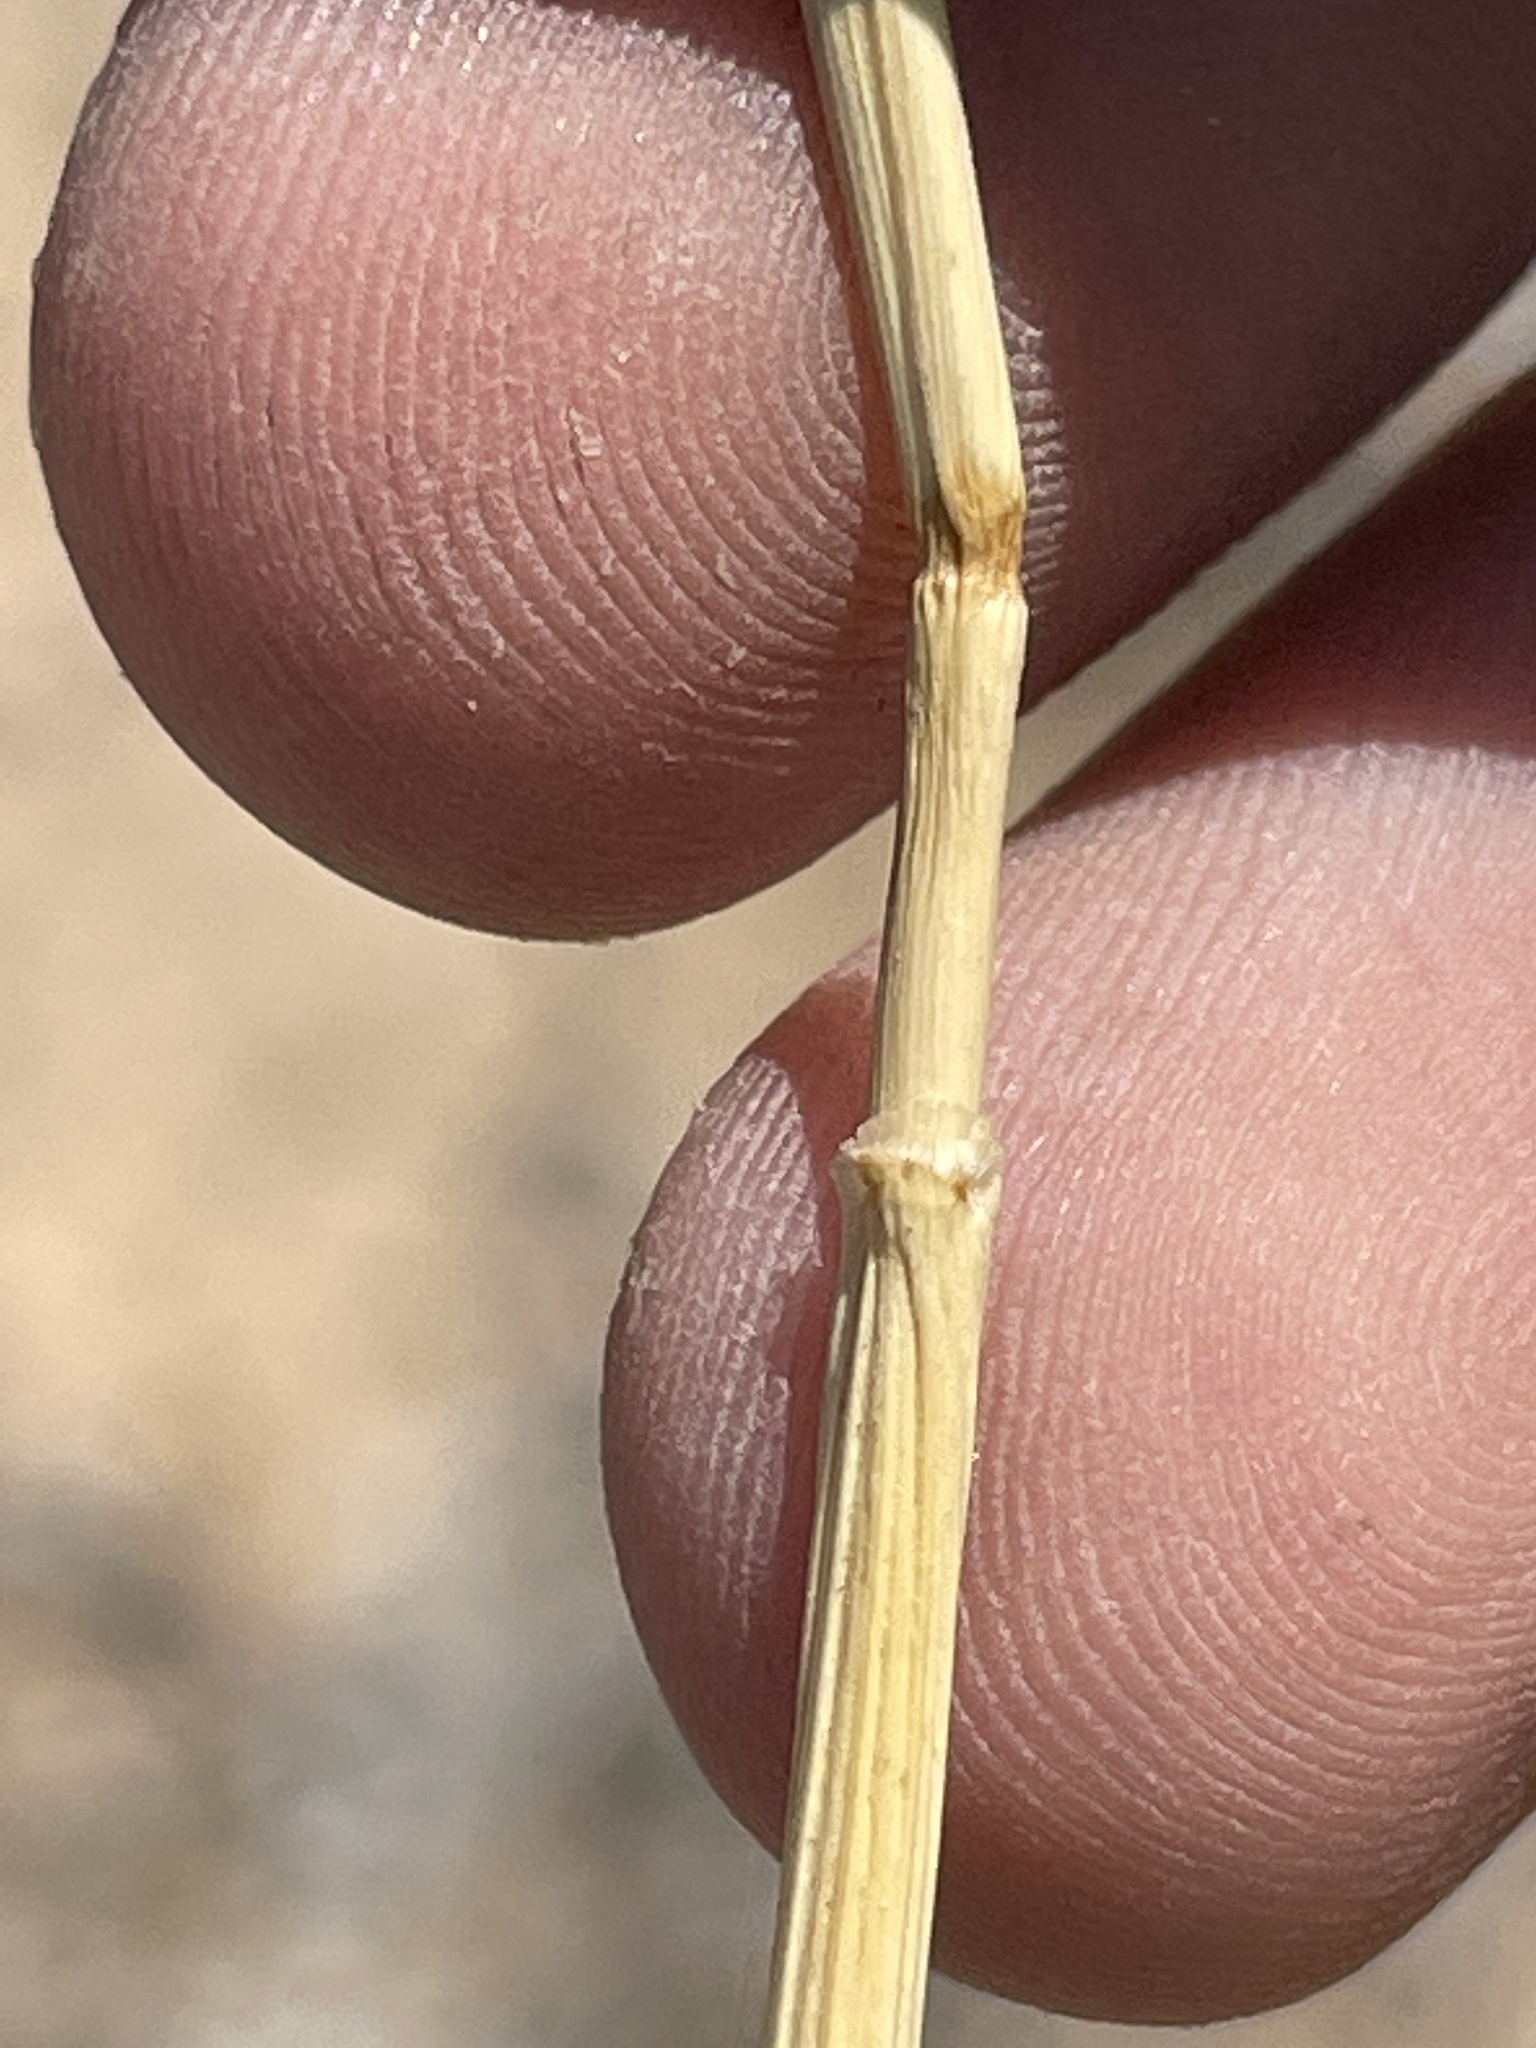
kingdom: Plantae
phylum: Tracheophyta
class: Liliopsida
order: Poales
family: Poaceae
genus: Pappostipa
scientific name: Pappostipa speciosa
